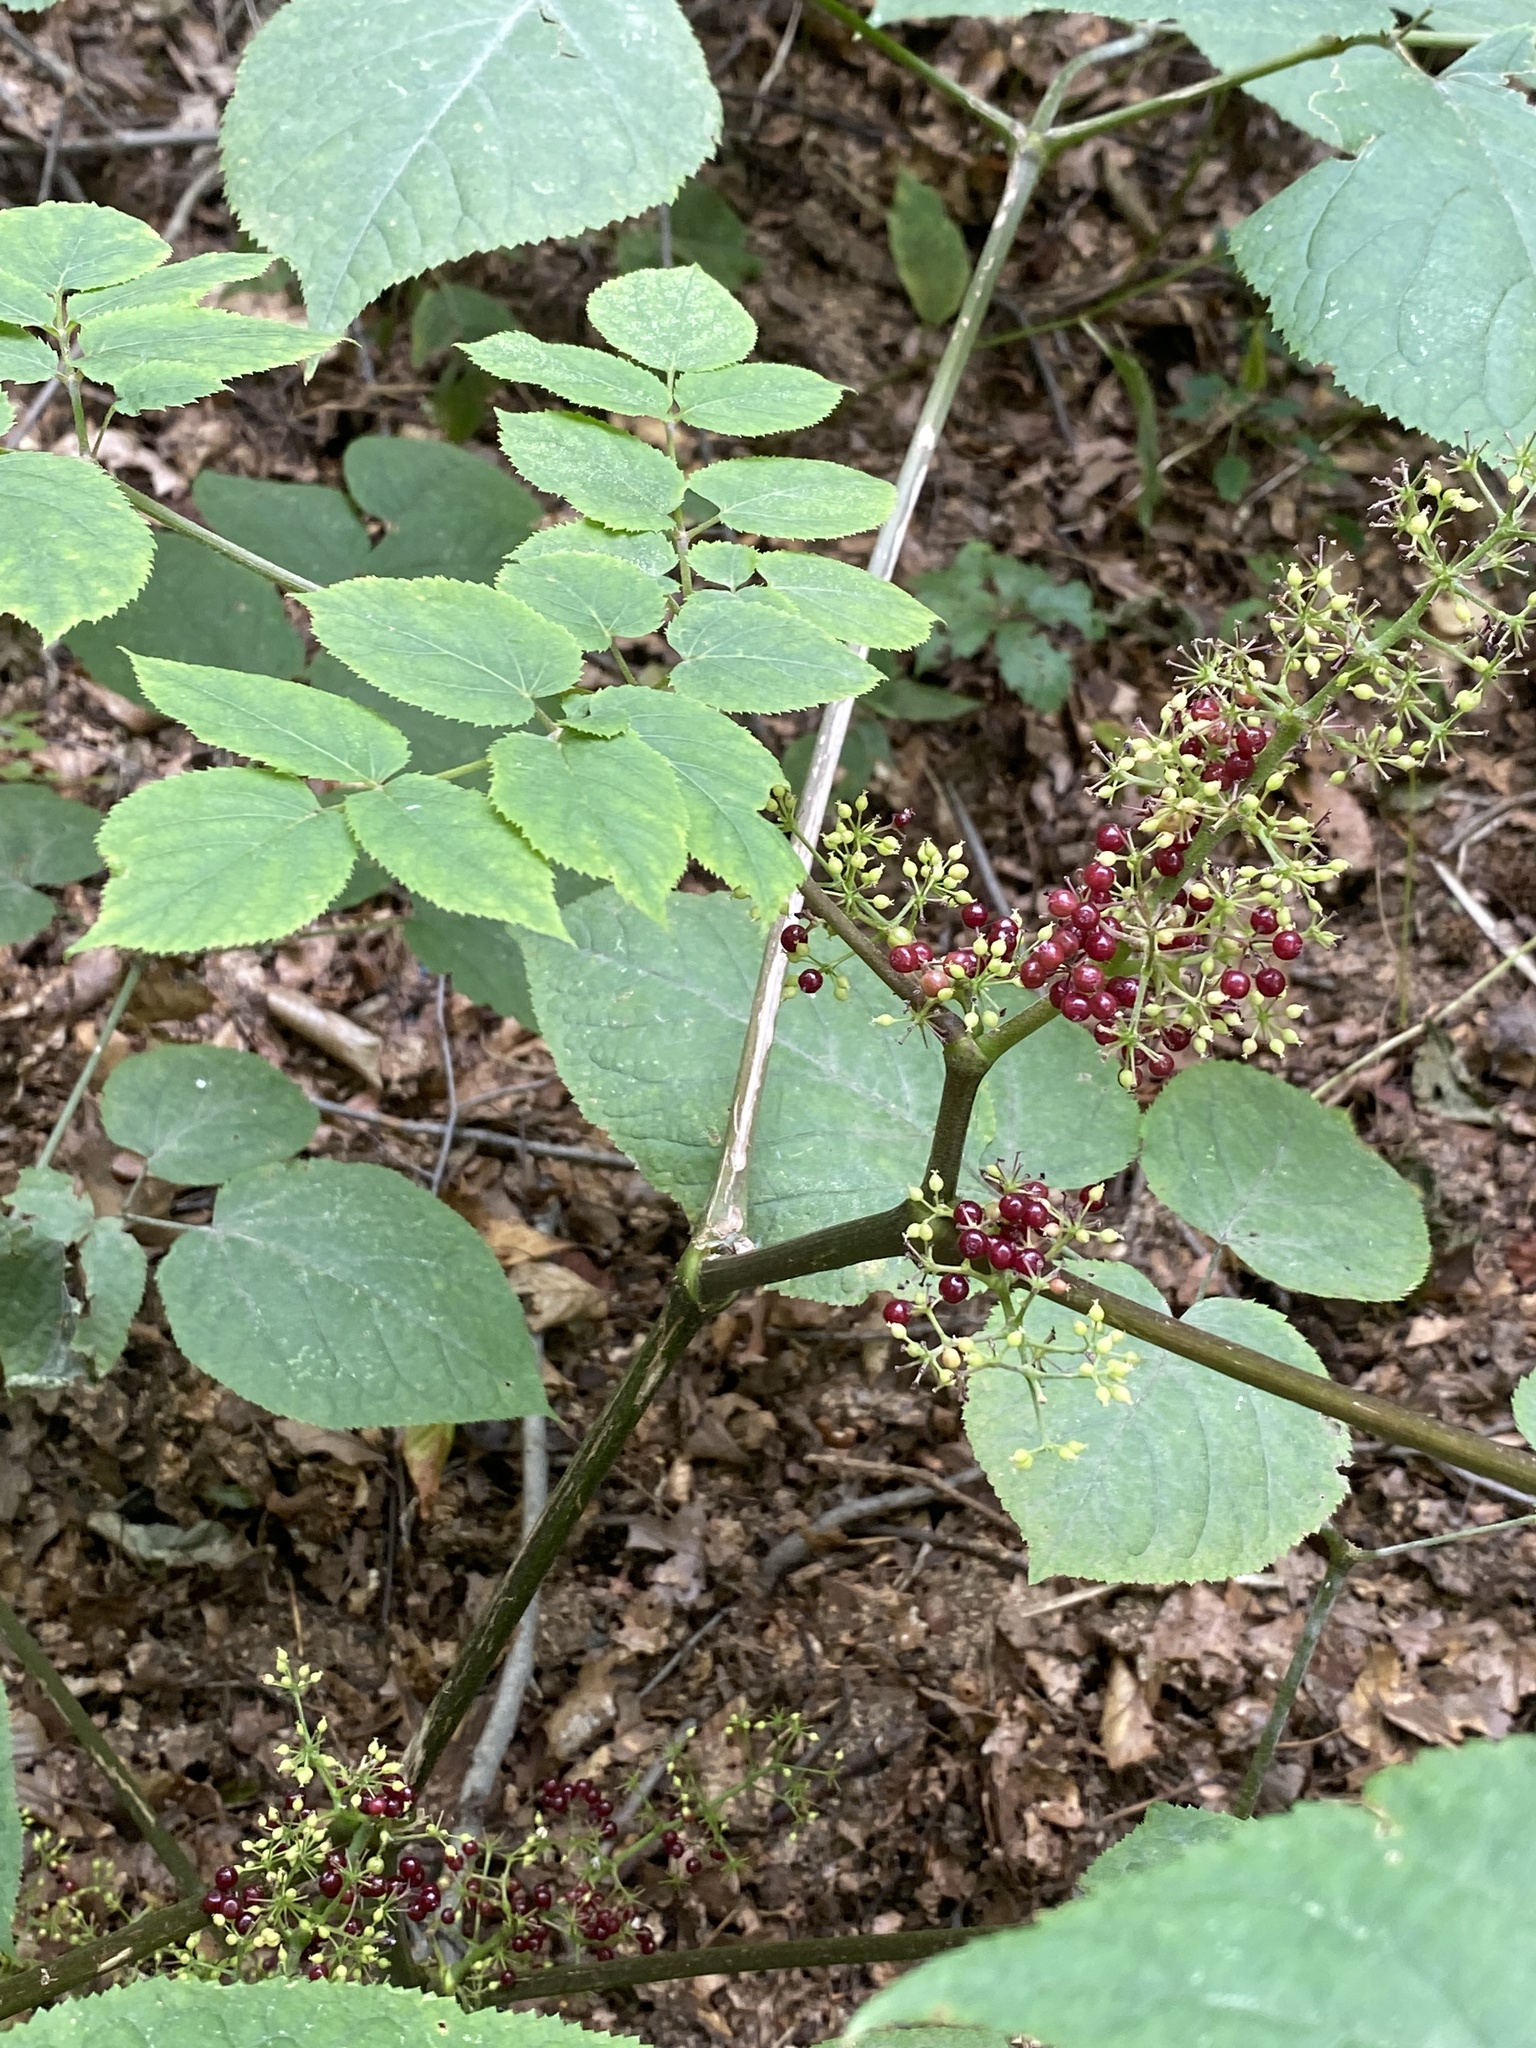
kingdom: Plantae
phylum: Tracheophyta
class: Magnoliopsida
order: Apiales
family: Araliaceae
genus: Aralia
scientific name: Aralia racemosa
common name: American-spikenard
